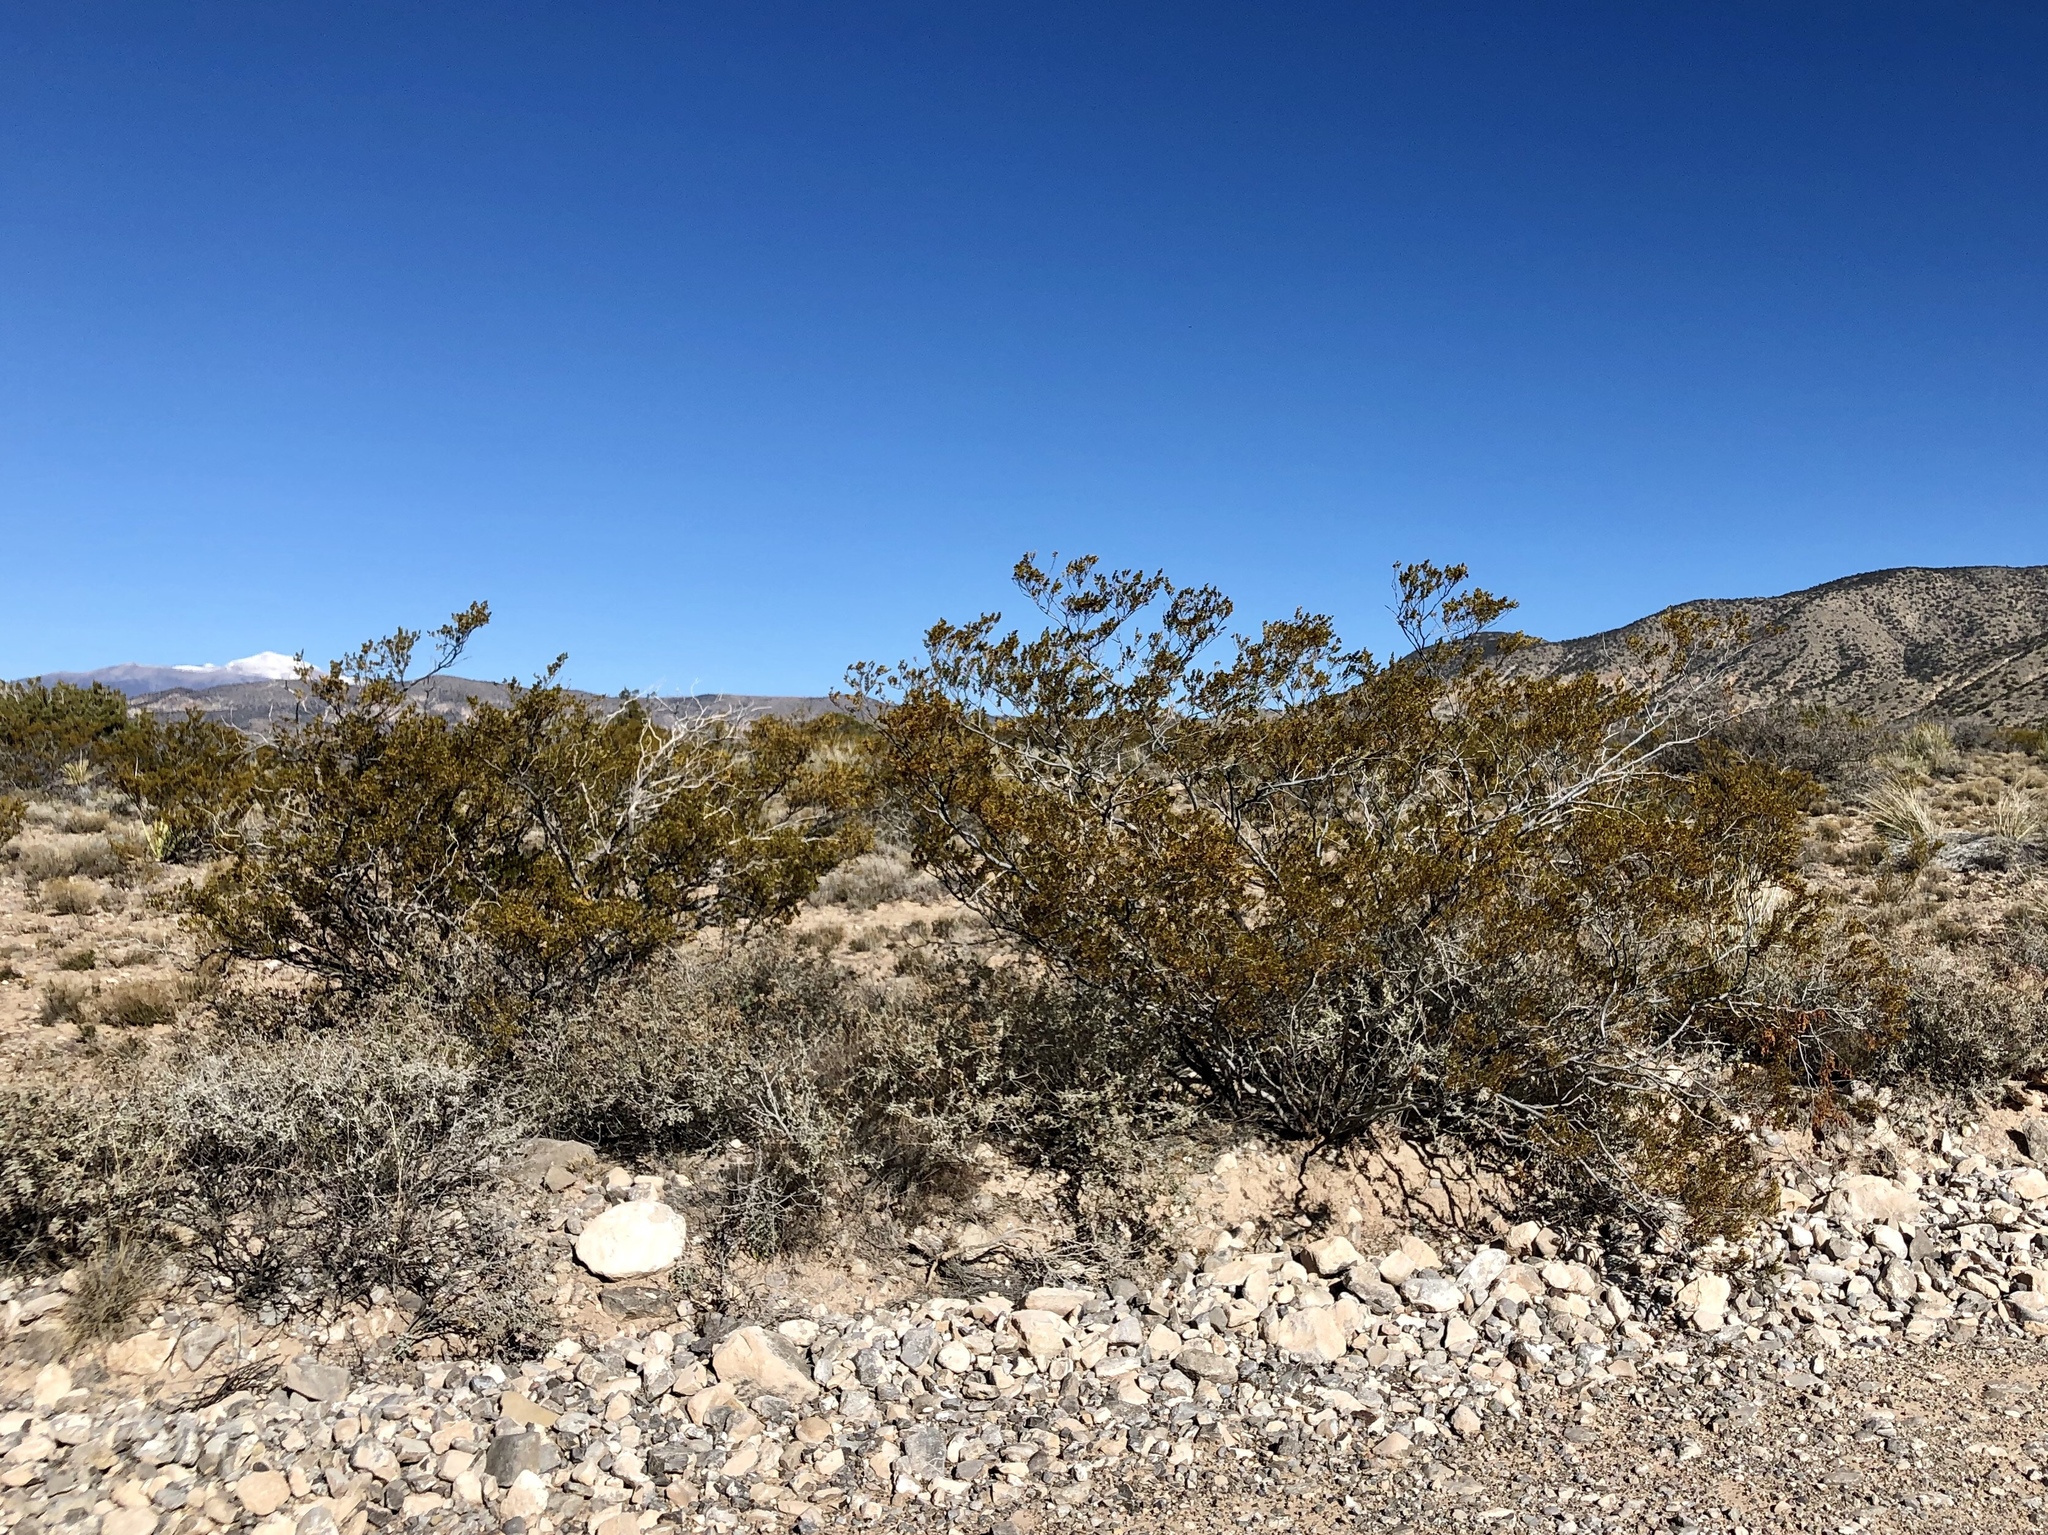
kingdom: Plantae
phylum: Tracheophyta
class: Magnoliopsida
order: Zygophyllales
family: Zygophyllaceae
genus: Larrea
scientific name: Larrea tridentata
